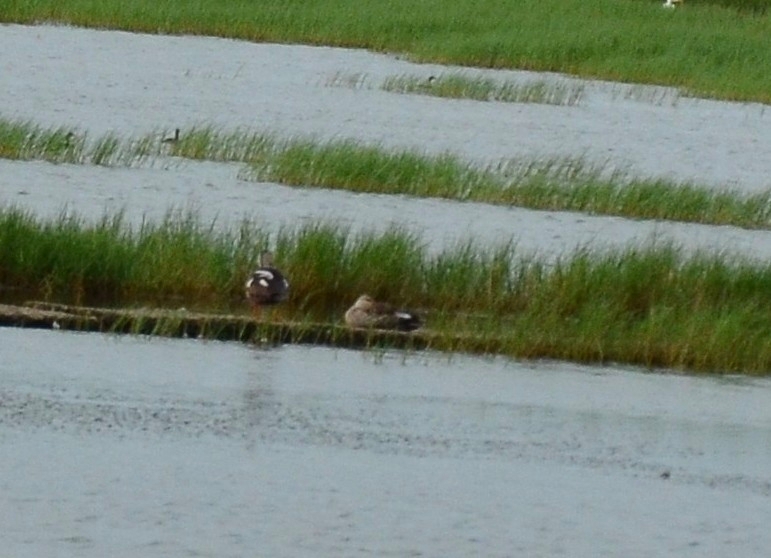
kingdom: Animalia
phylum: Chordata
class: Aves
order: Anseriformes
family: Anatidae
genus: Anas
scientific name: Anas poecilorhyncha
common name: Indian spot-billed duck
